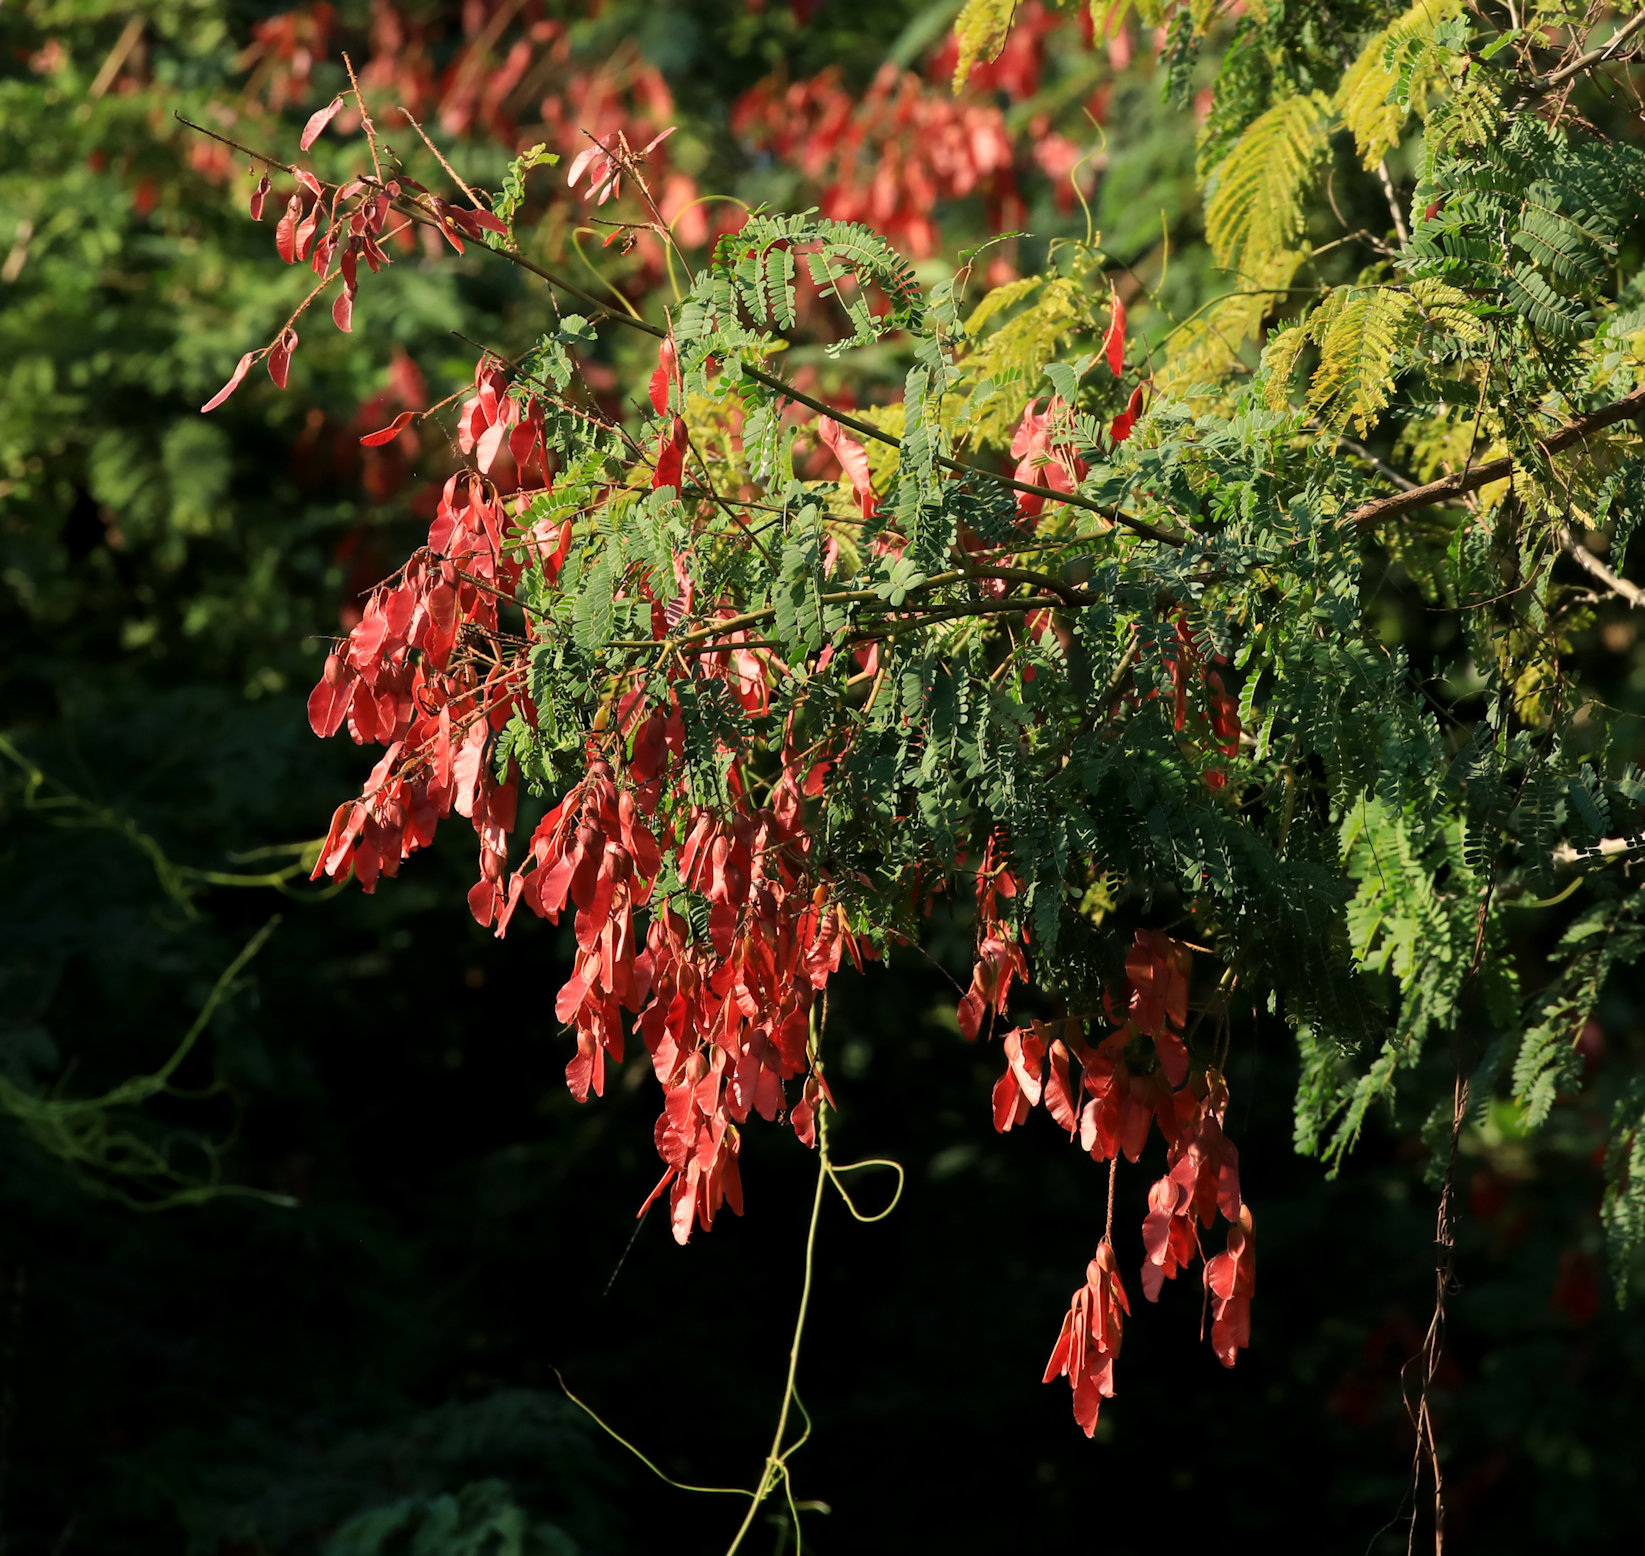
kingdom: Plantae
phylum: Tracheophyta
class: Magnoliopsida
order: Fabales
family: Fabaceae
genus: Pterolobium
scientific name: Pterolobium stellatum
